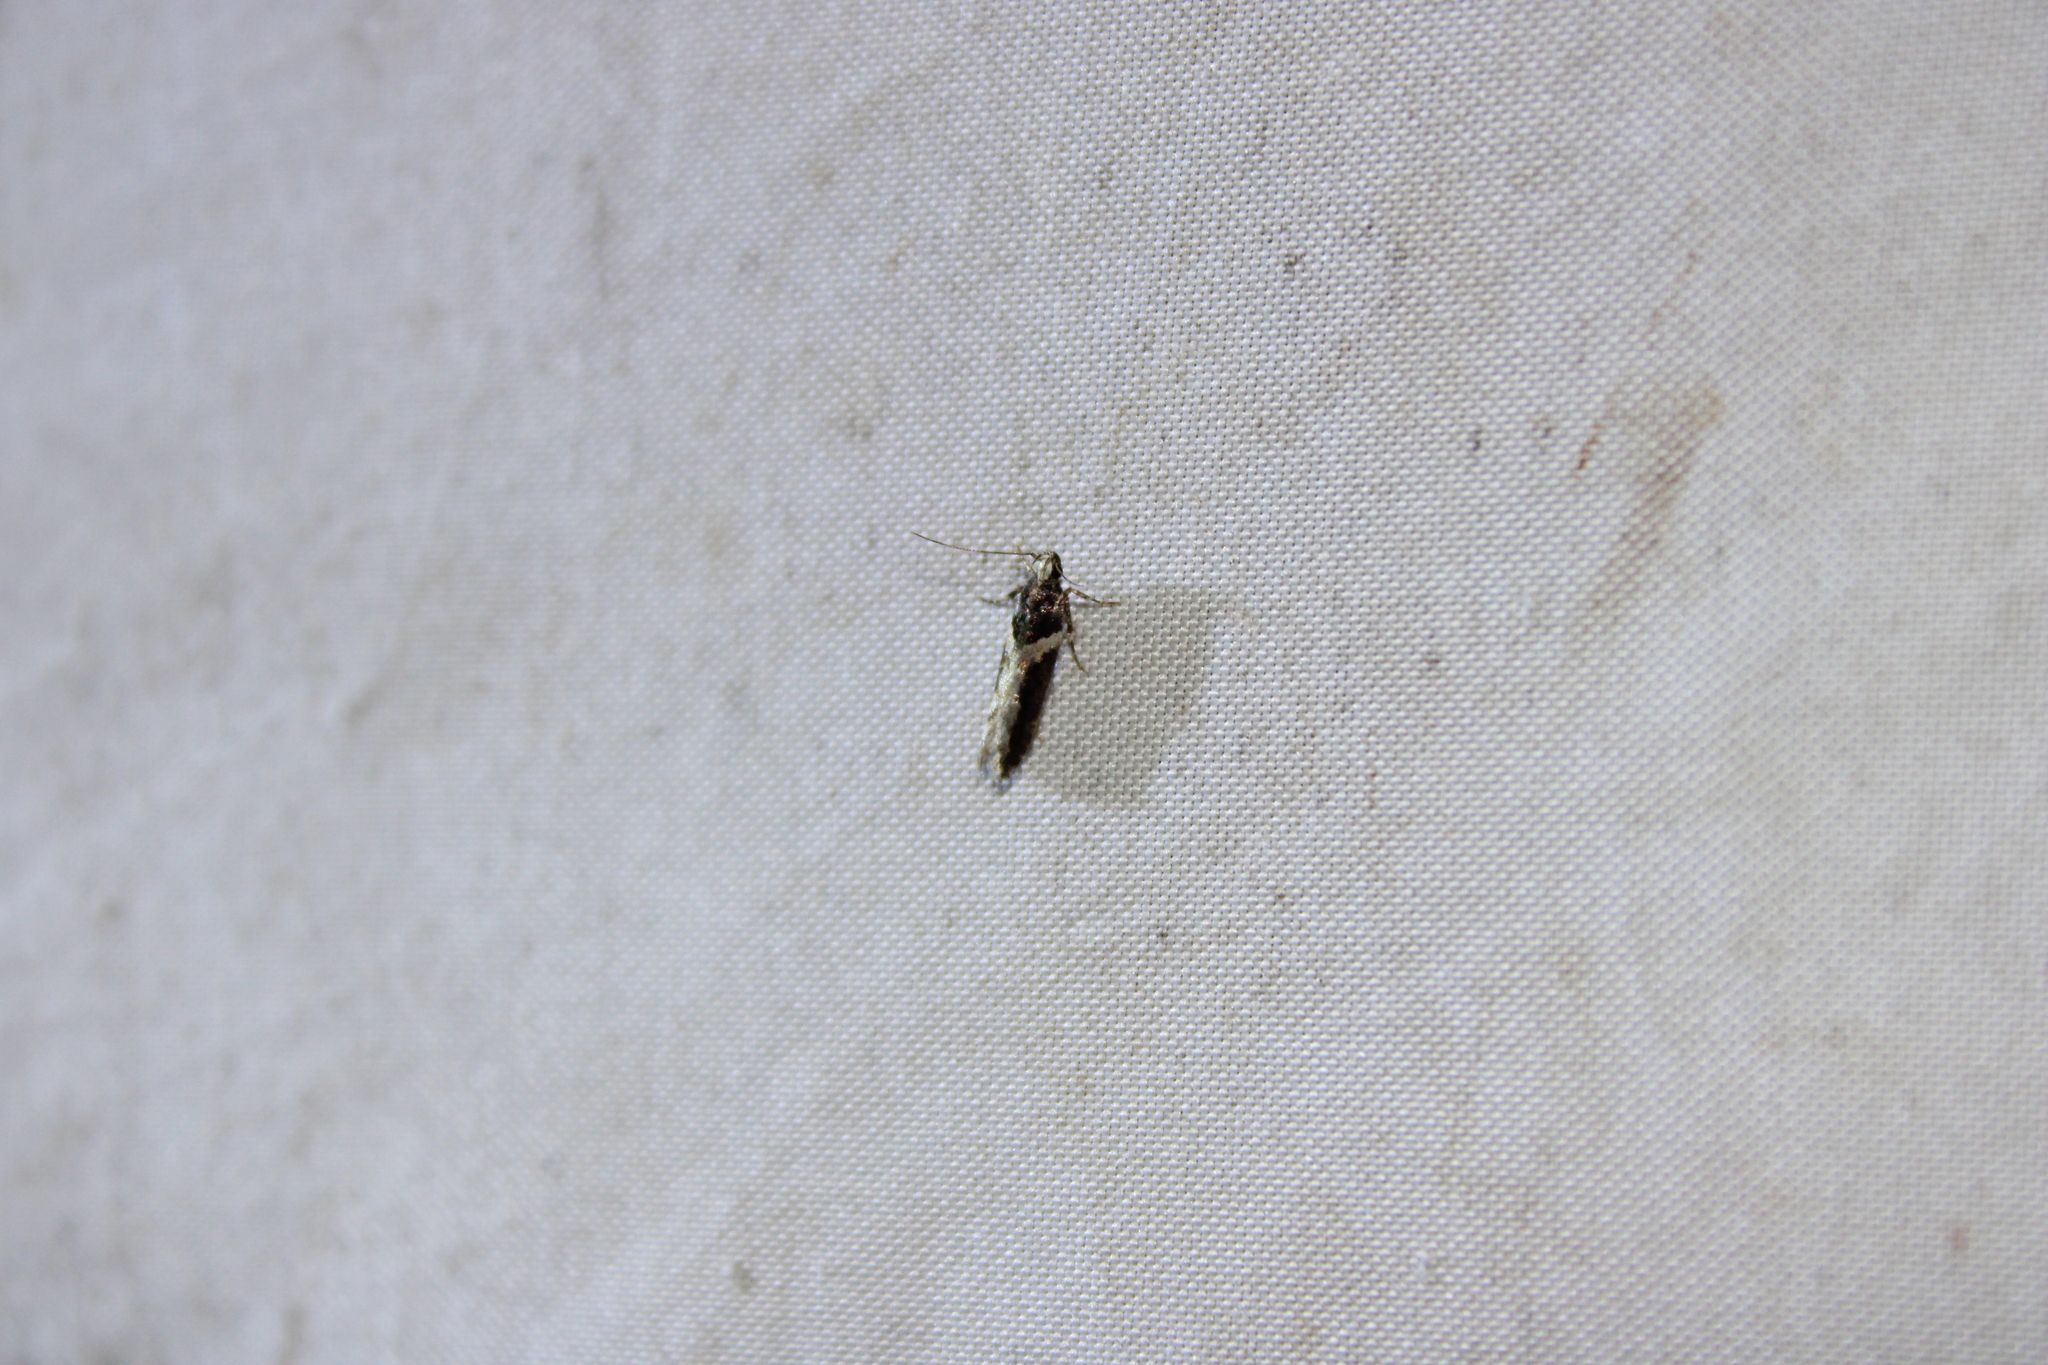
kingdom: Animalia
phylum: Arthropoda
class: Insecta
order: Lepidoptera
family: Gelechiidae
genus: Telphusa
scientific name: Telphusa longifasciella
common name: Y-backed telphusa
